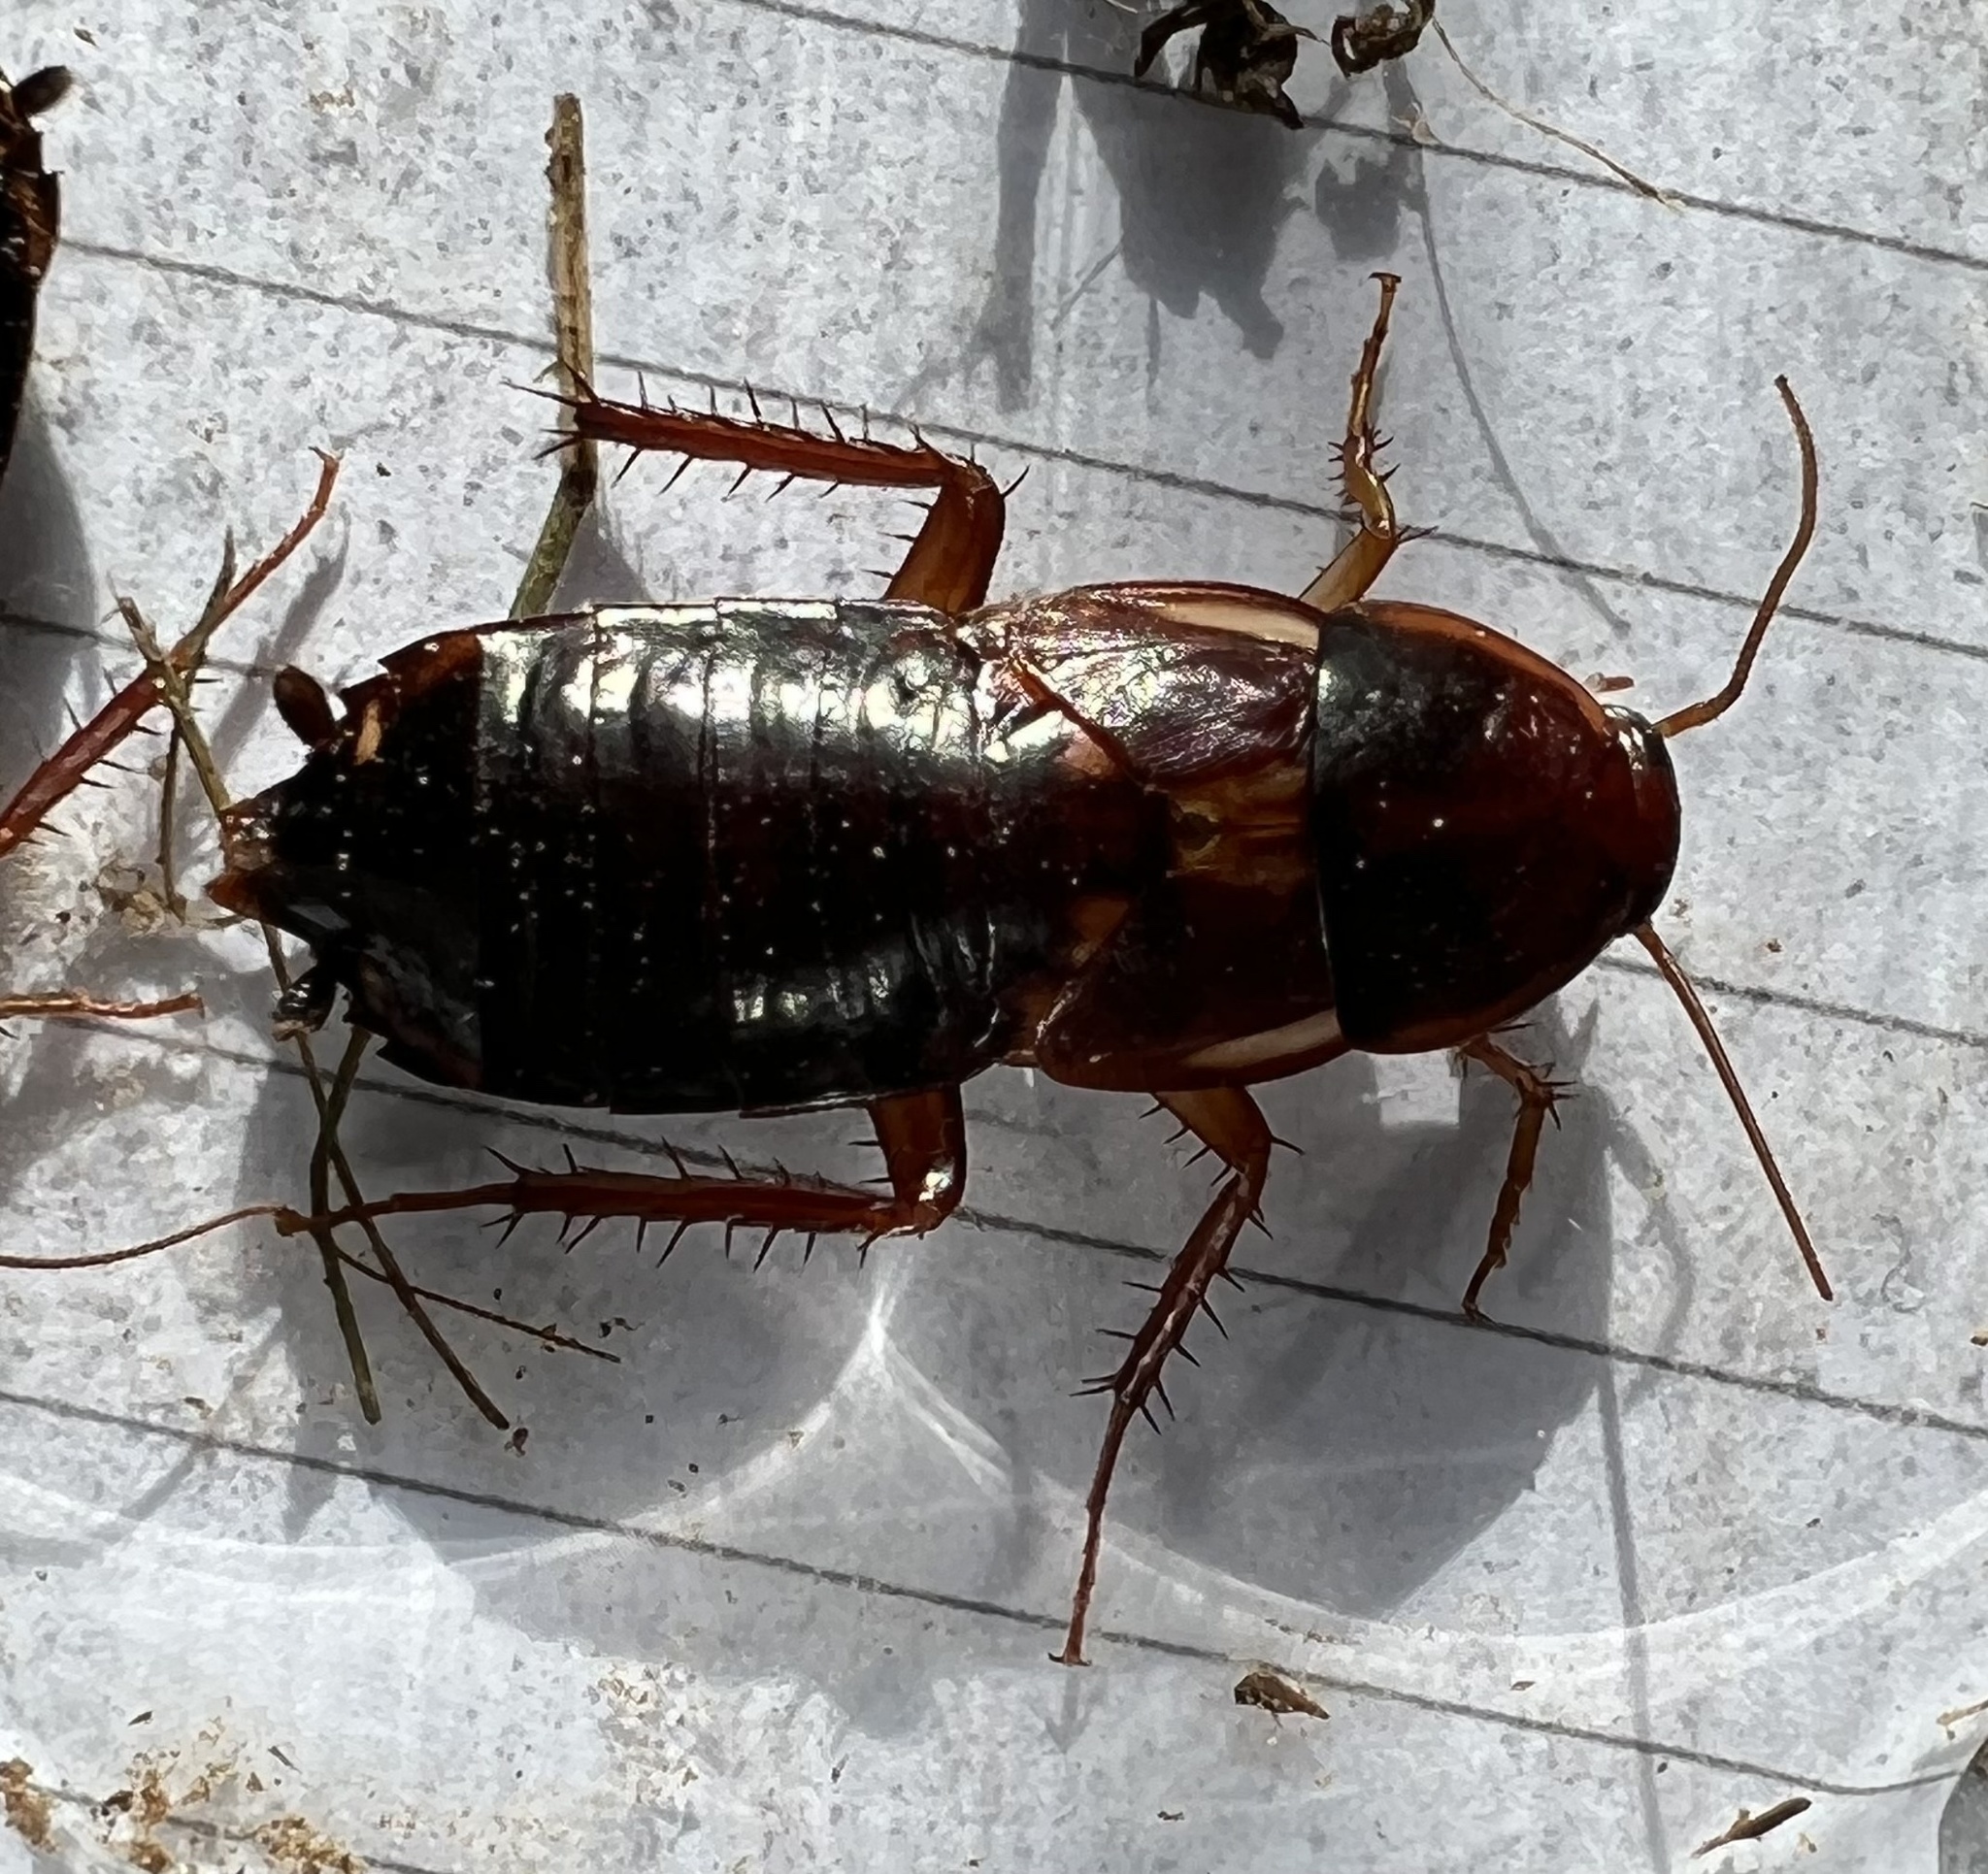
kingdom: Animalia
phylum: Arthropoda
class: Insecta
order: Blattodea
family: Blattidae
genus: Periplaneta
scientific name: Periplaneta lateralis
